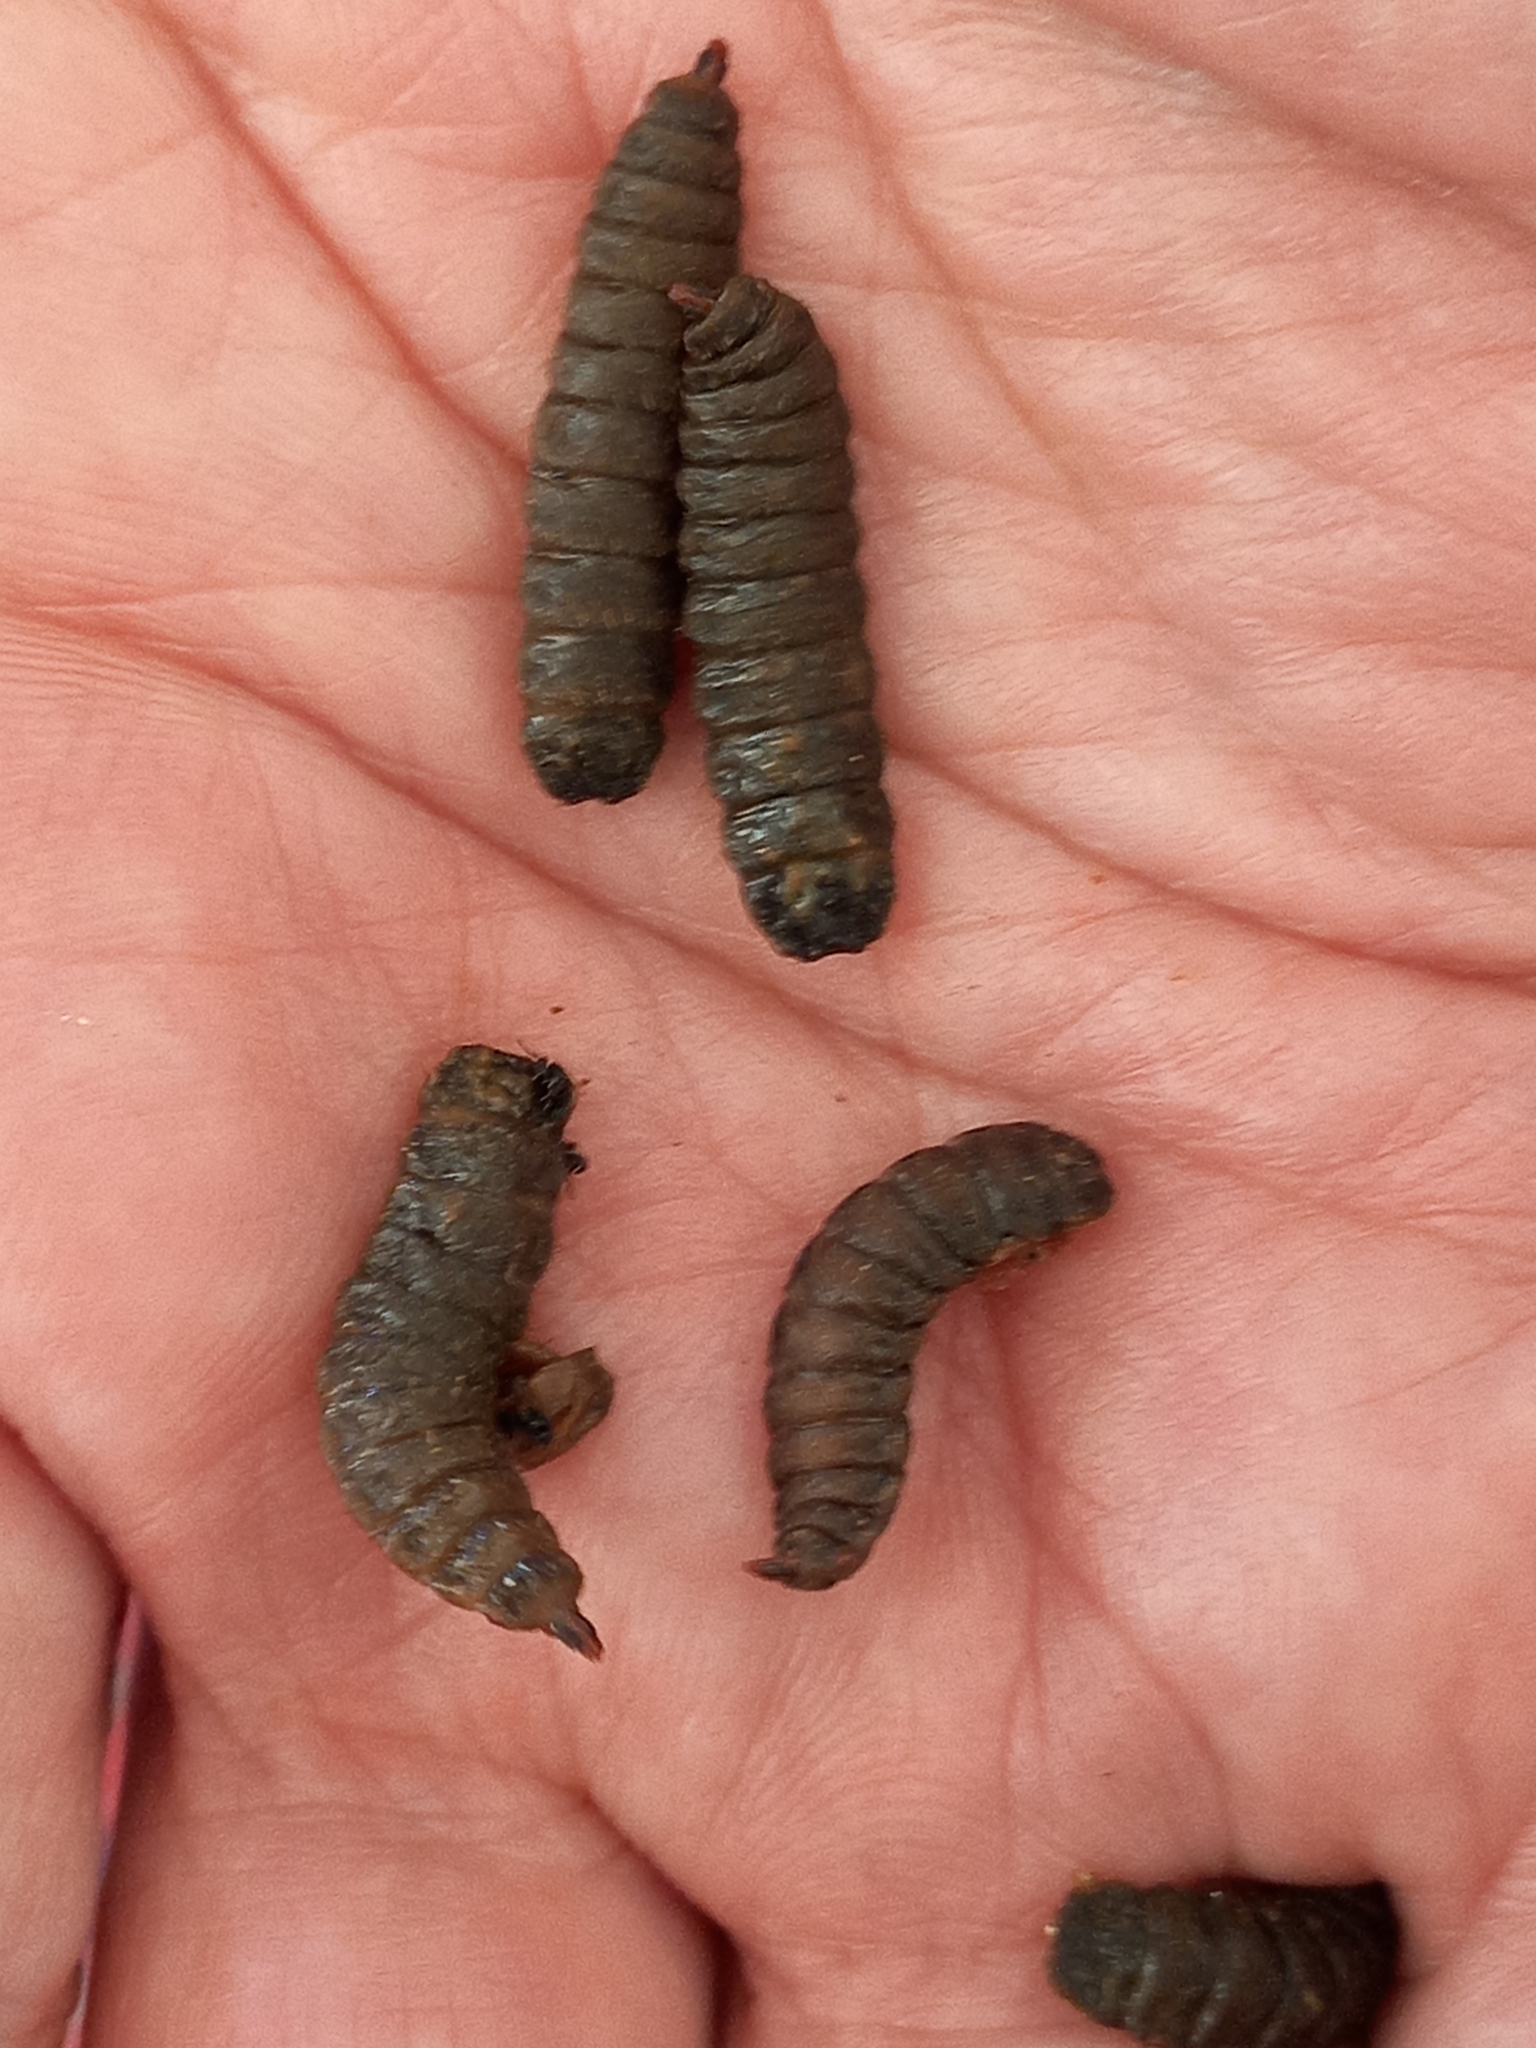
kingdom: Animalia
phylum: Arthropoda
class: Insecta
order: Diptera
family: Stratiomyidae
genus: Hermetia
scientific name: Hermetia illucens
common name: Black soldier fly
